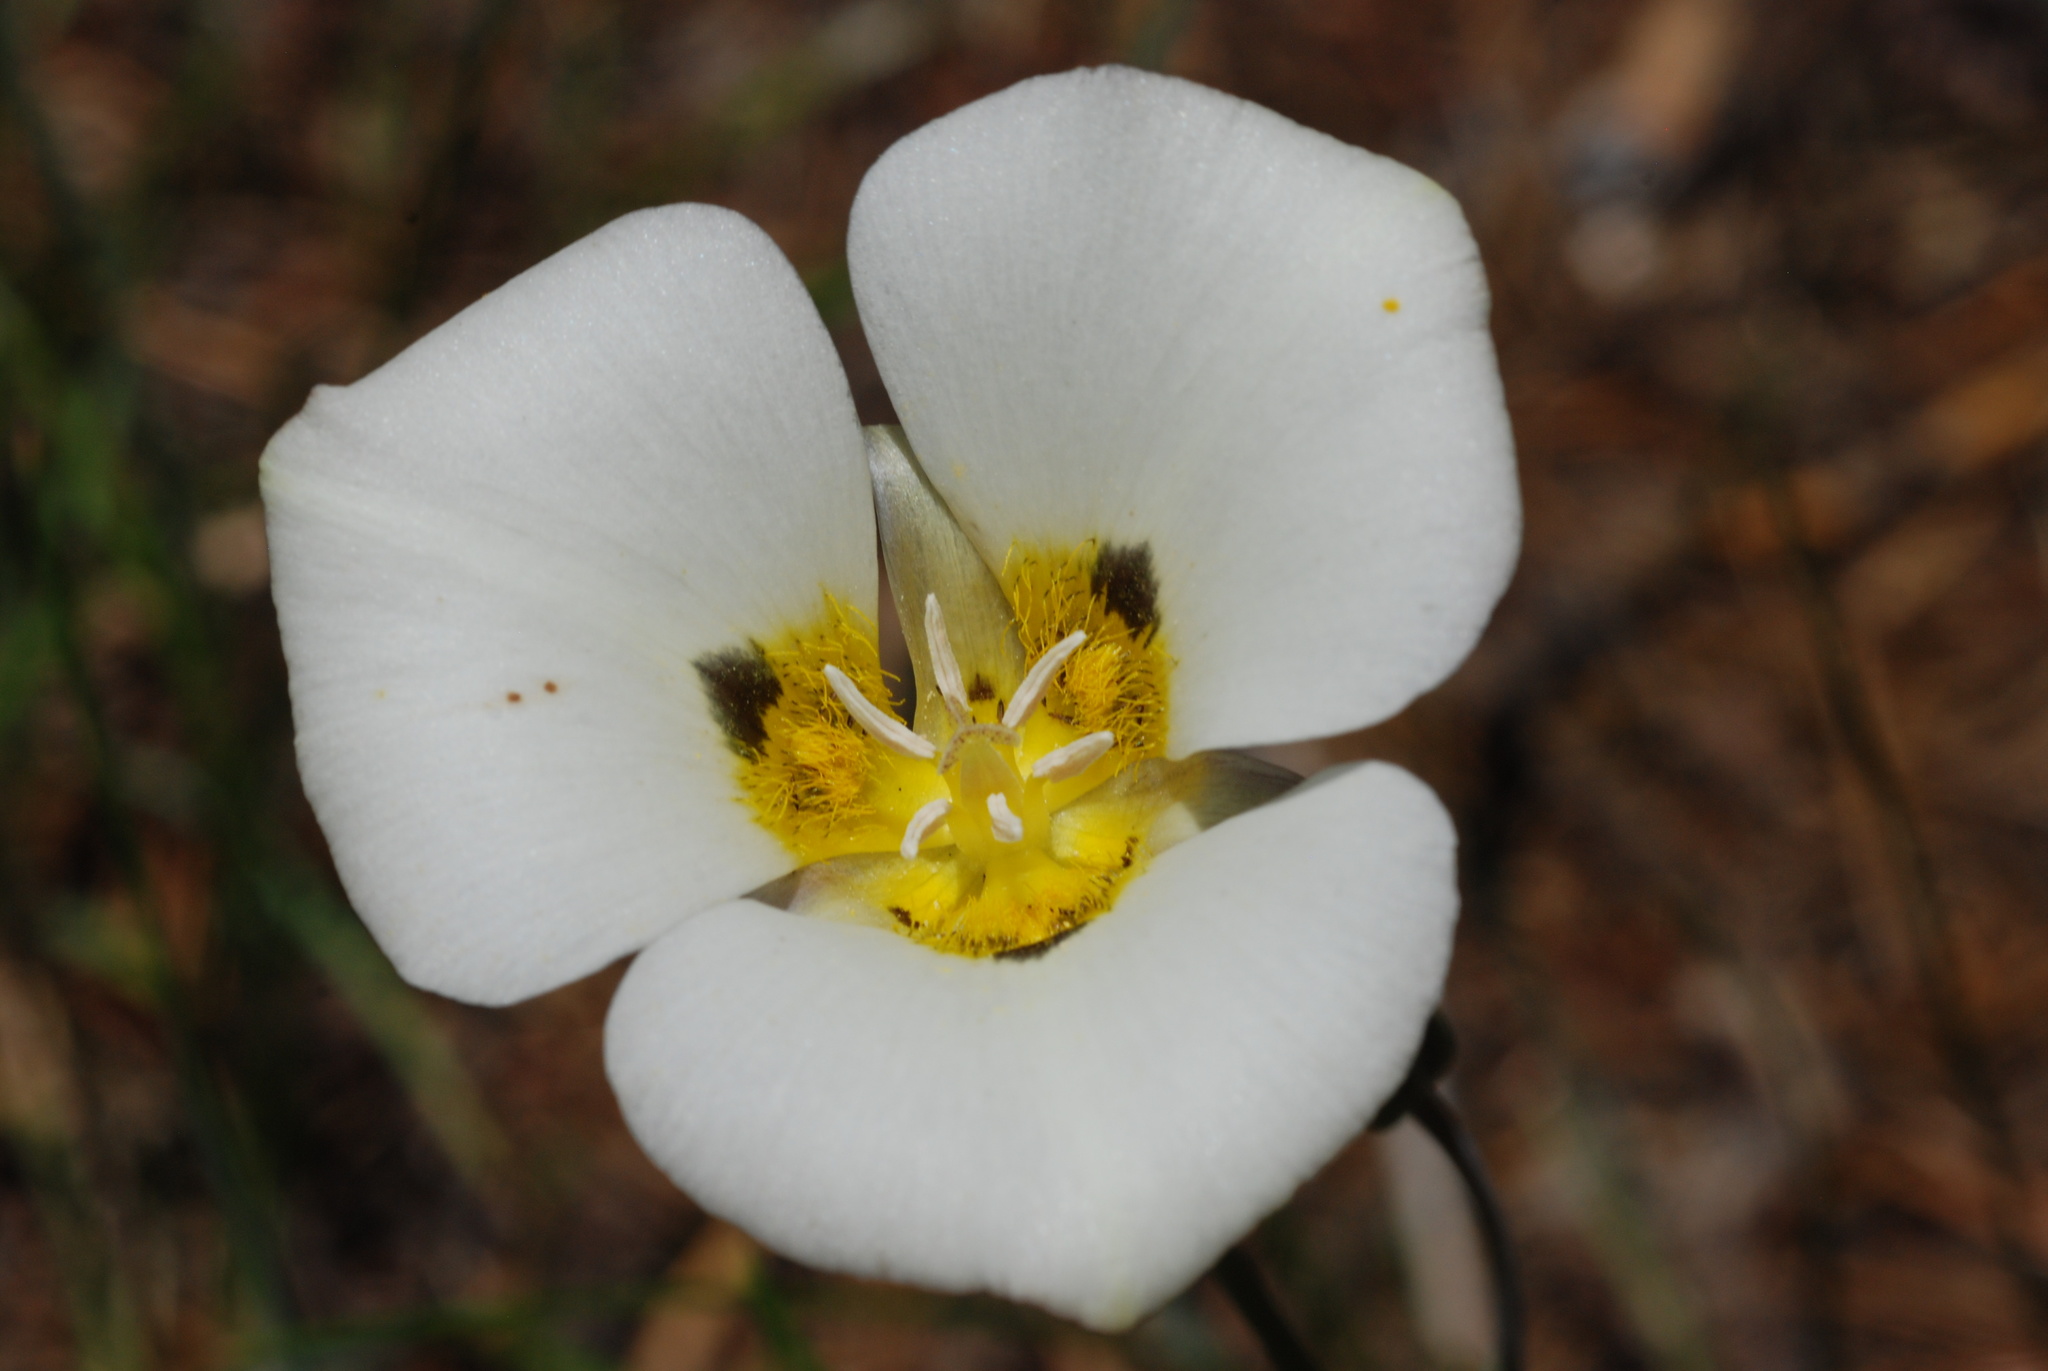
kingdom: Plantae
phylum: Tracheophyta
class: Liliopsida
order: Liliales
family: Liliaceae
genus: Calochortus
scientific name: Calochortus leichtlinii
